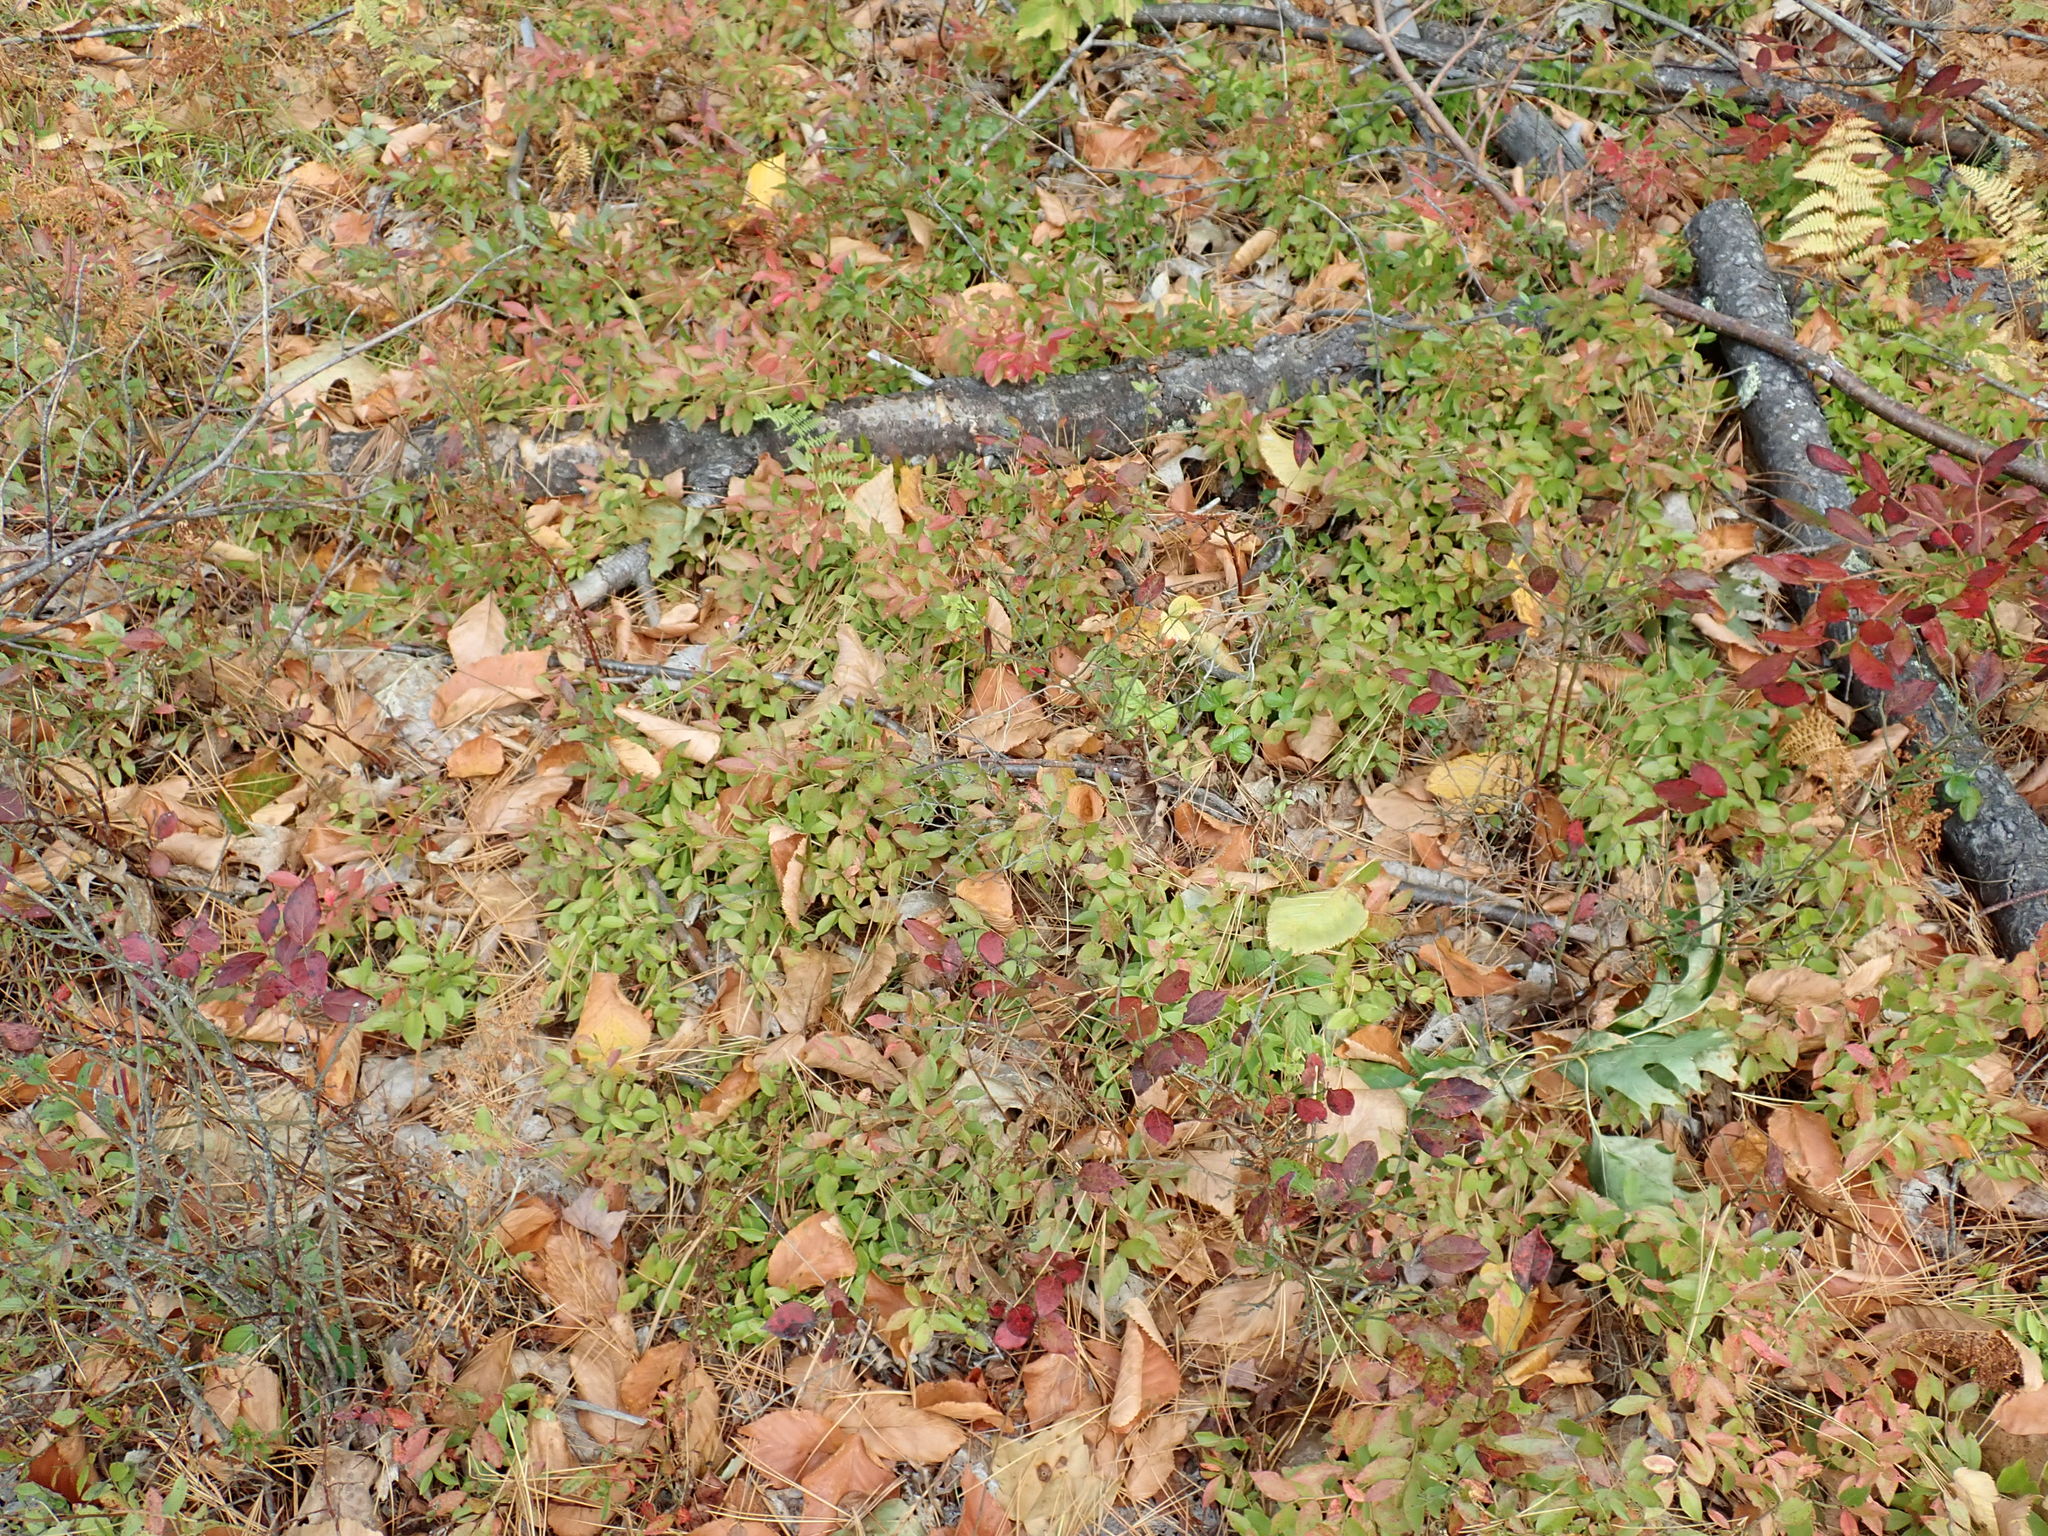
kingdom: Plantae
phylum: Tracheophyta
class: Magnoliopsida
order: Ericales
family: Ericaceae
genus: Vaccinium
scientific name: Vaccinium angustifolium
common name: Early lowbush blueberry
